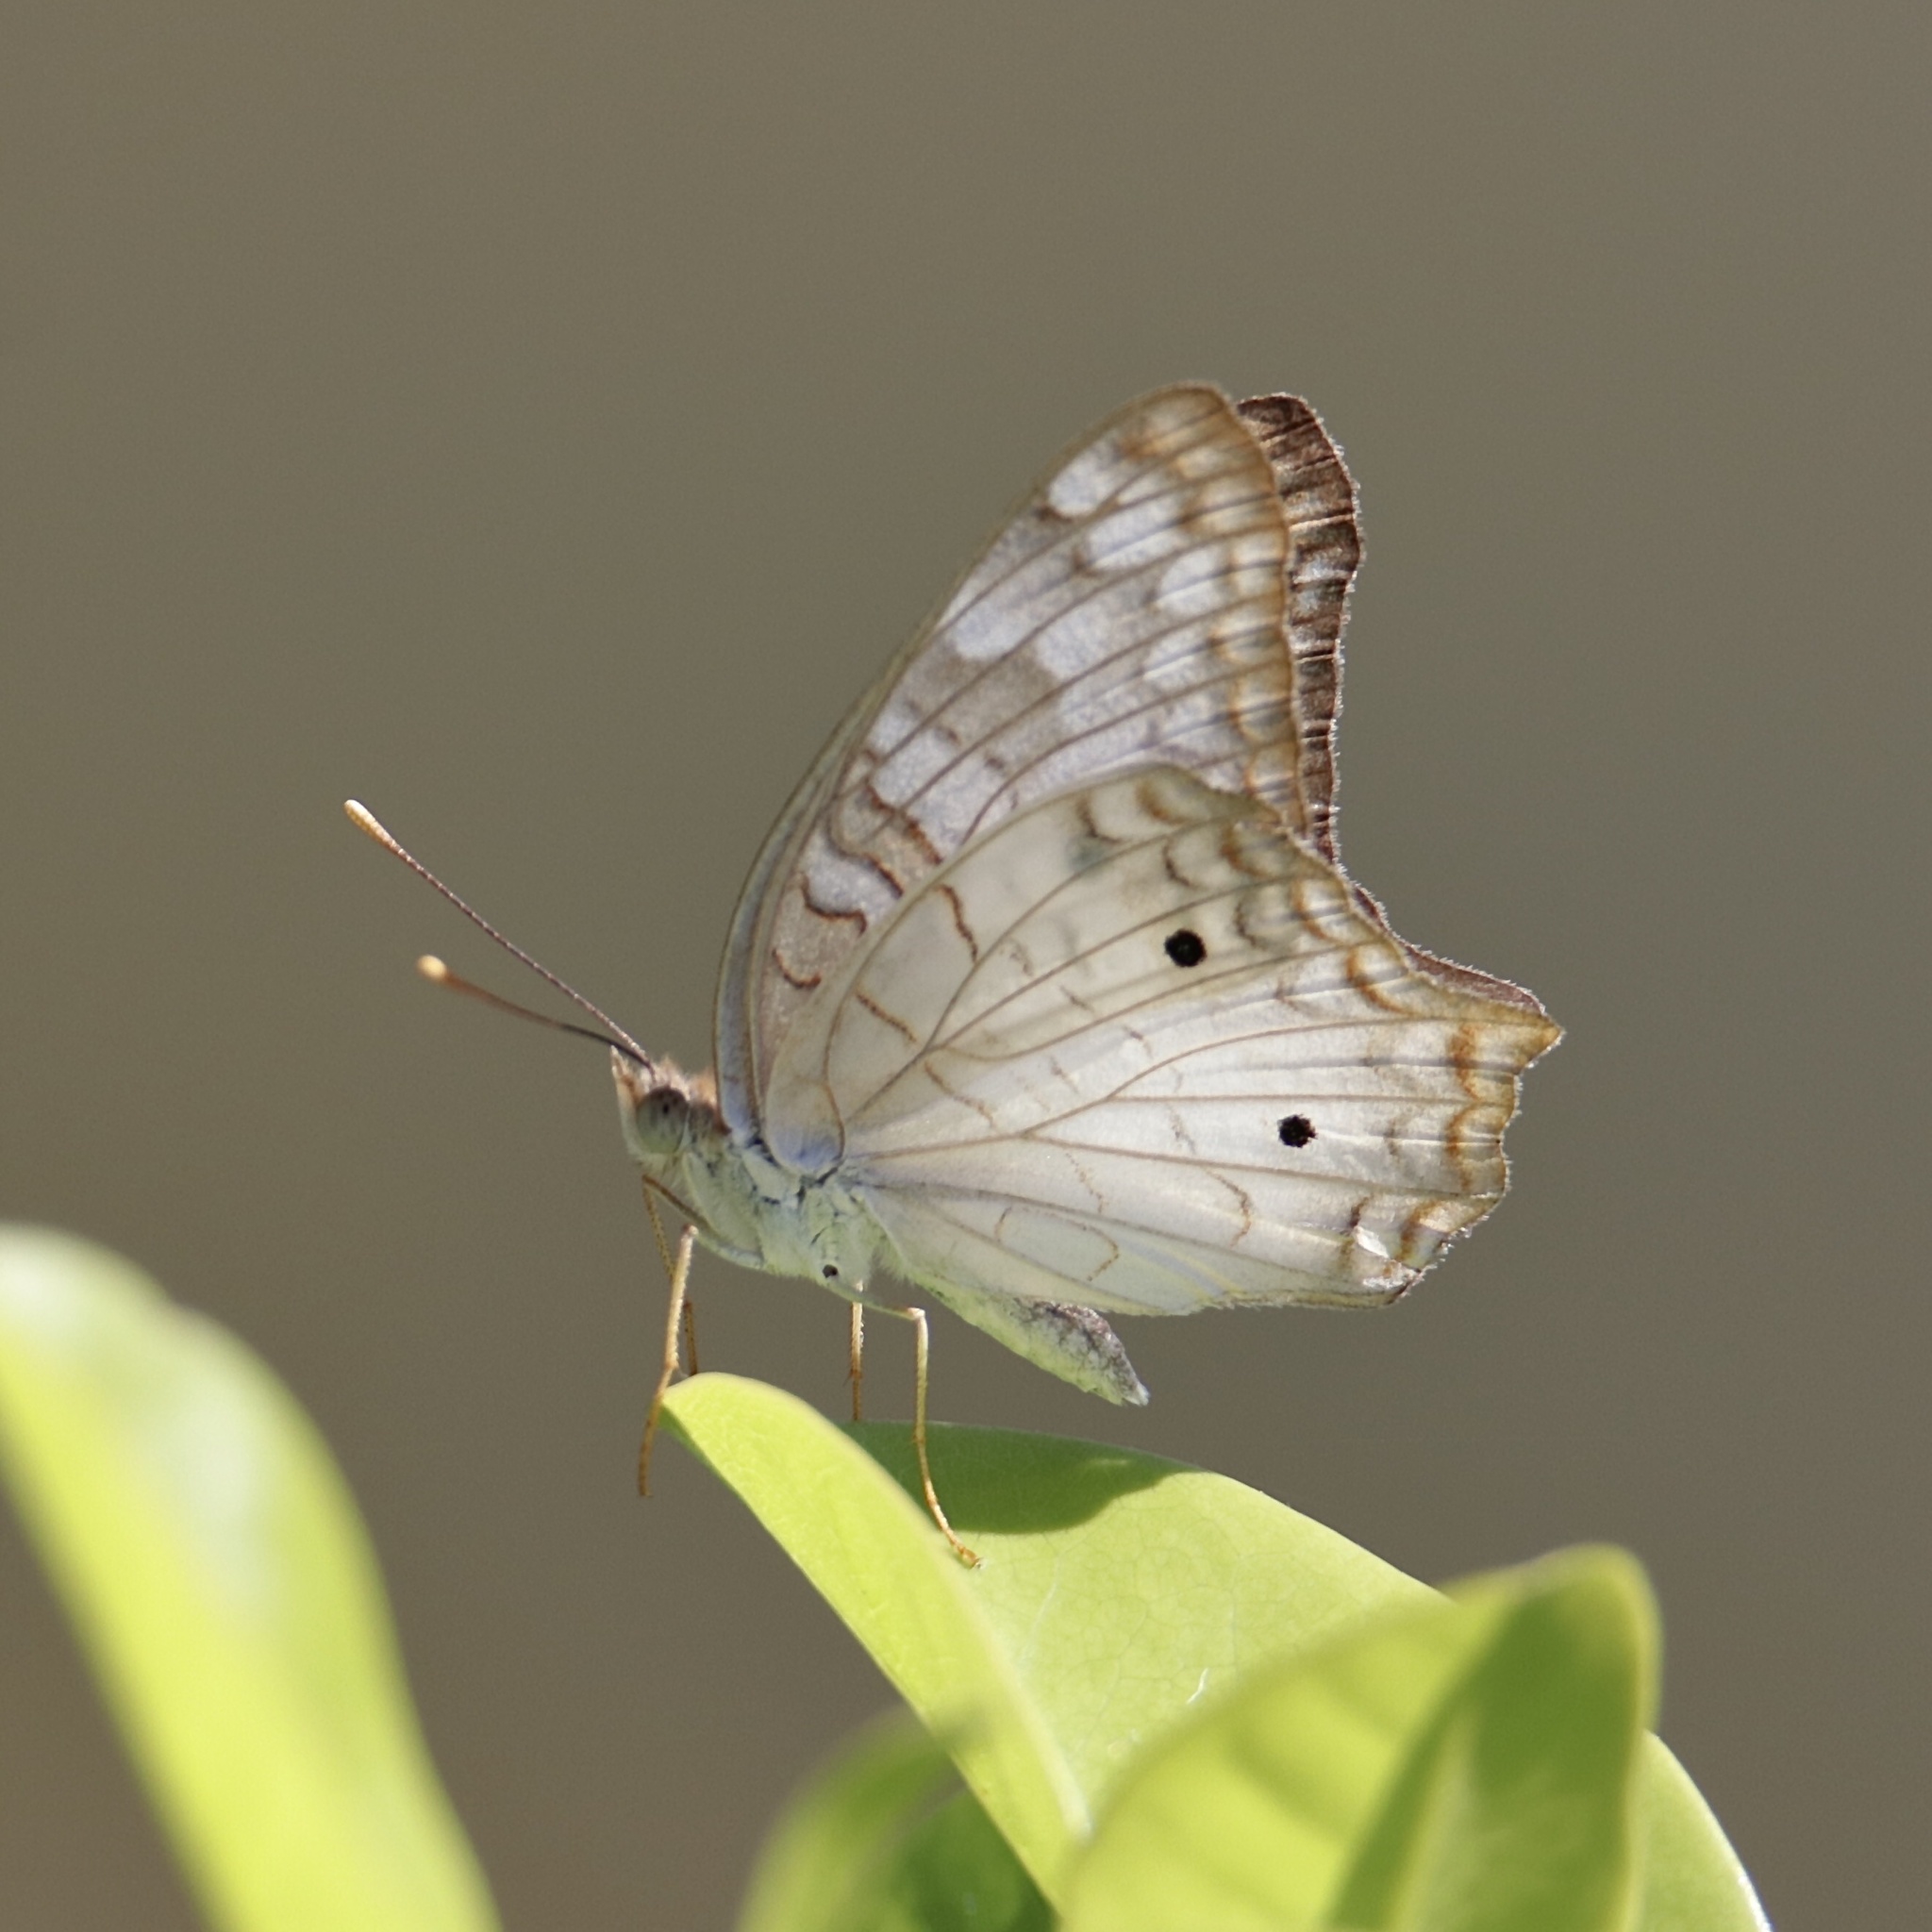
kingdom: Animalia
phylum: Arthropoda
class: Insecta
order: Lepidoptera
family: Nymphalidae
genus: Anartia
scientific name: Anartia jatrophae
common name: White peacock
